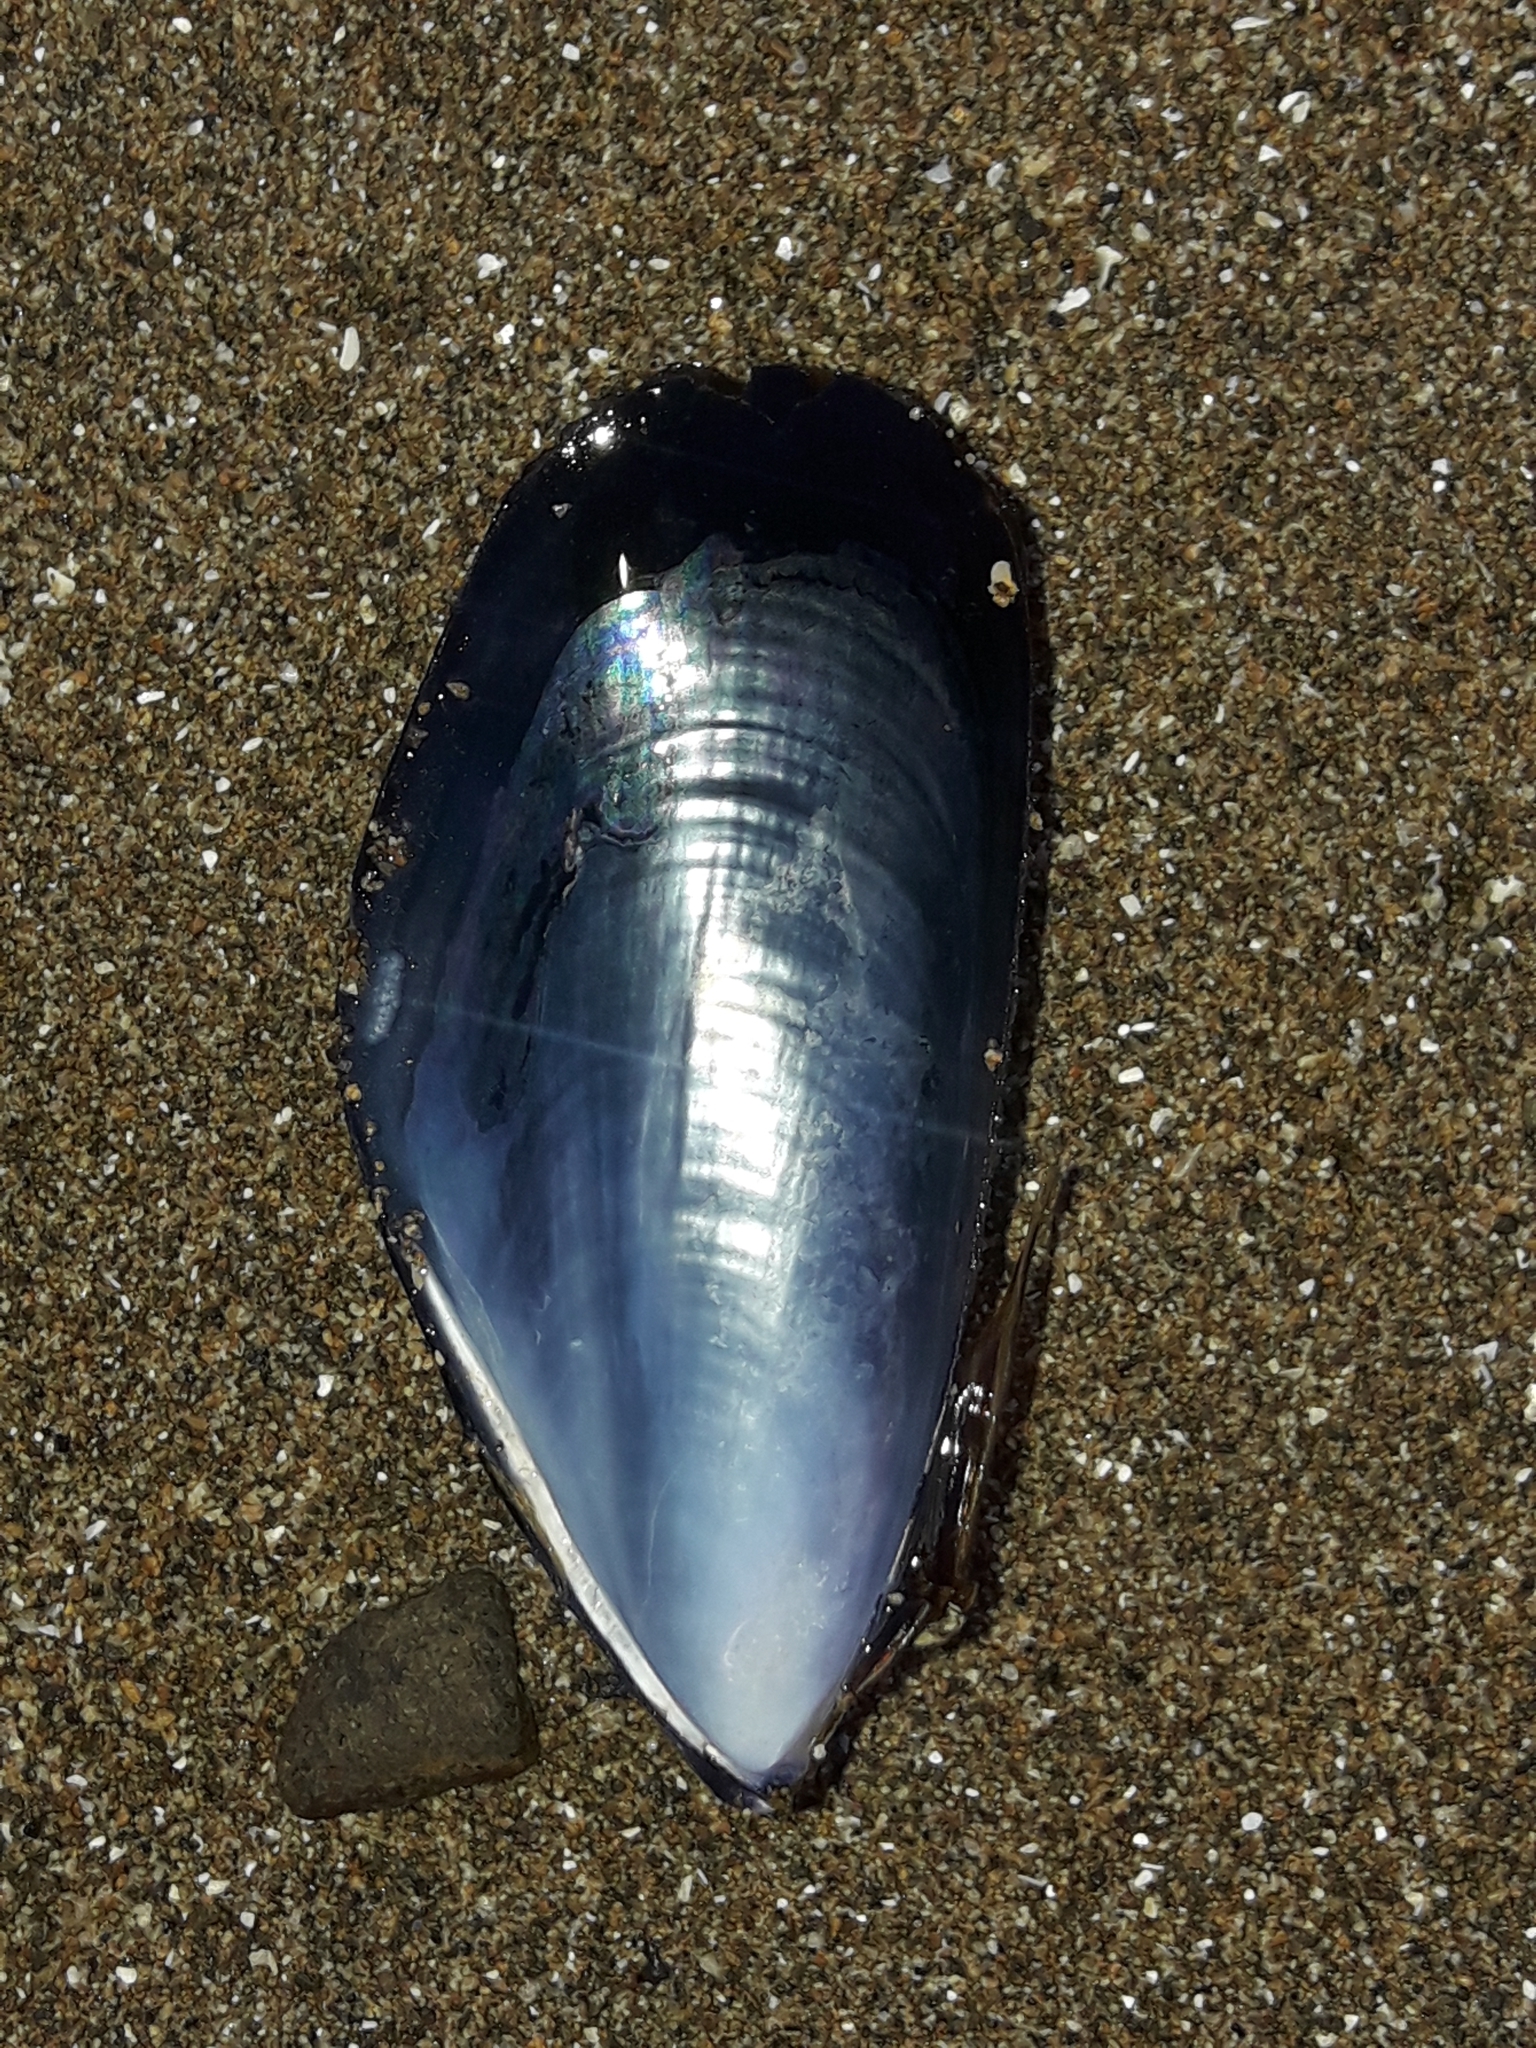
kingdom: Animalia
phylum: Mollusca
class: Bivalvia
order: Mytilida
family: Mytilidae
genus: Mytilus
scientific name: Mytilus planulatus
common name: Australian mussel
